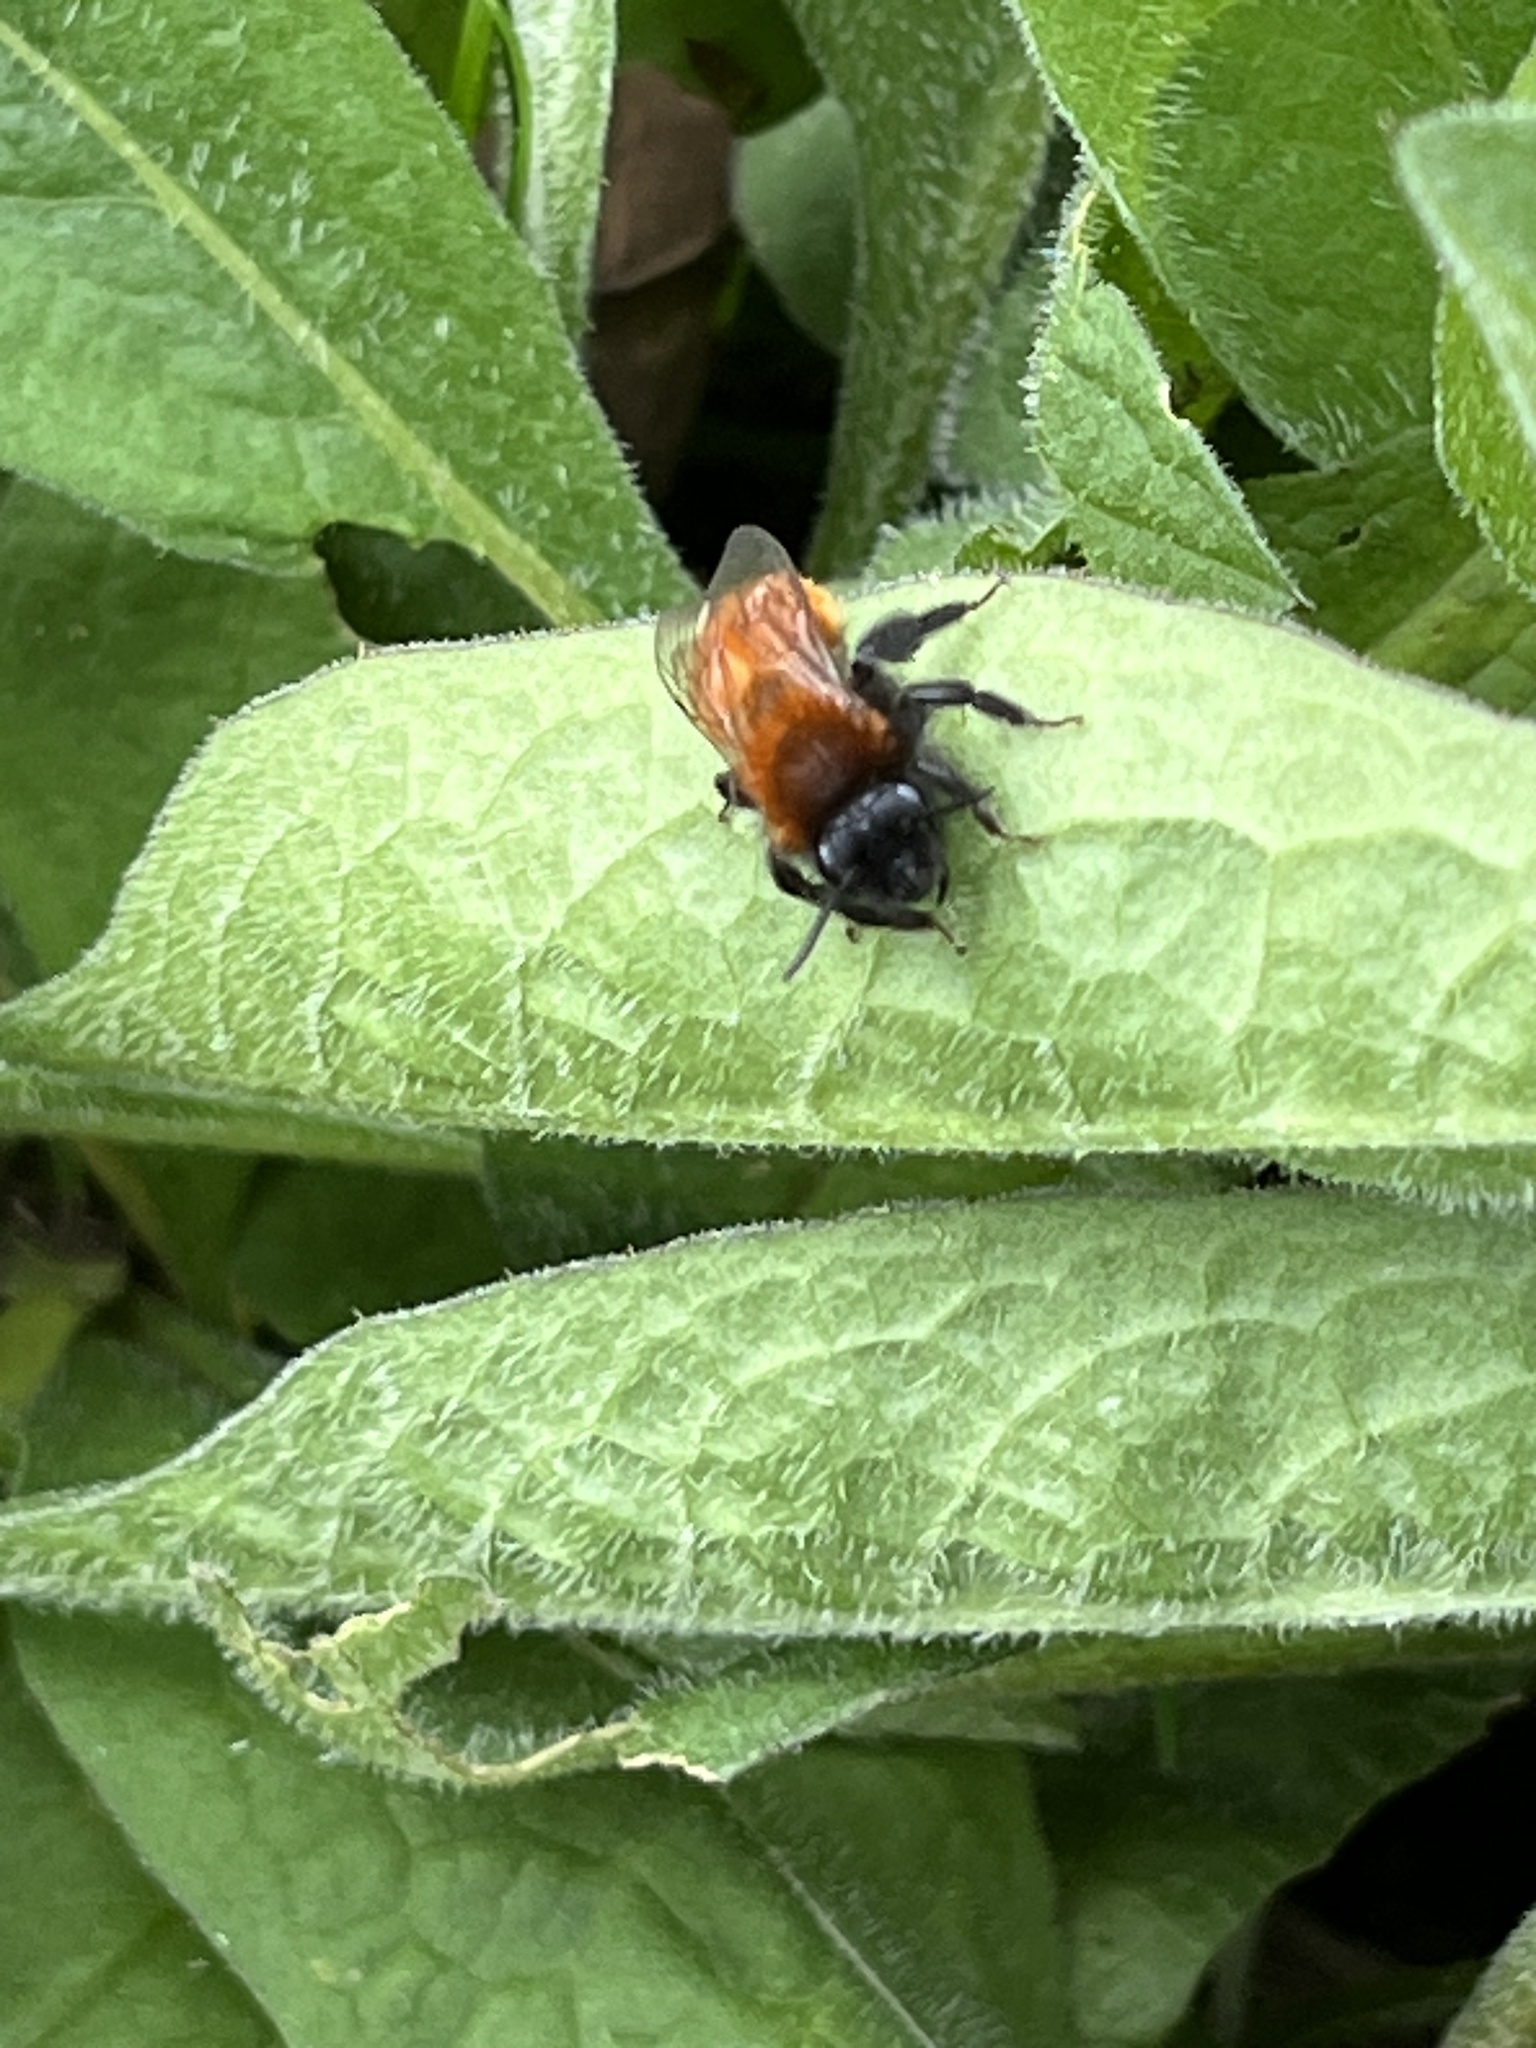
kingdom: Animalia
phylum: Arthropoda
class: Insecta
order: Hymenoptera
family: Andrenidae
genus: Andrena
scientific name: Andrena fulva
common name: Tawny mining bee
